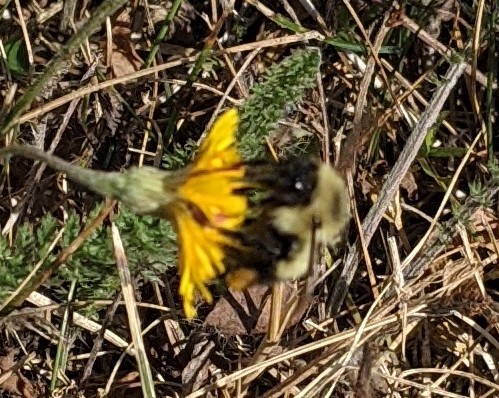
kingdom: Animalia
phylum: Arthropoda
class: Insecta
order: Hymenoptera
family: Apidae
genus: Pyrobombus
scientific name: Pyrobombus
